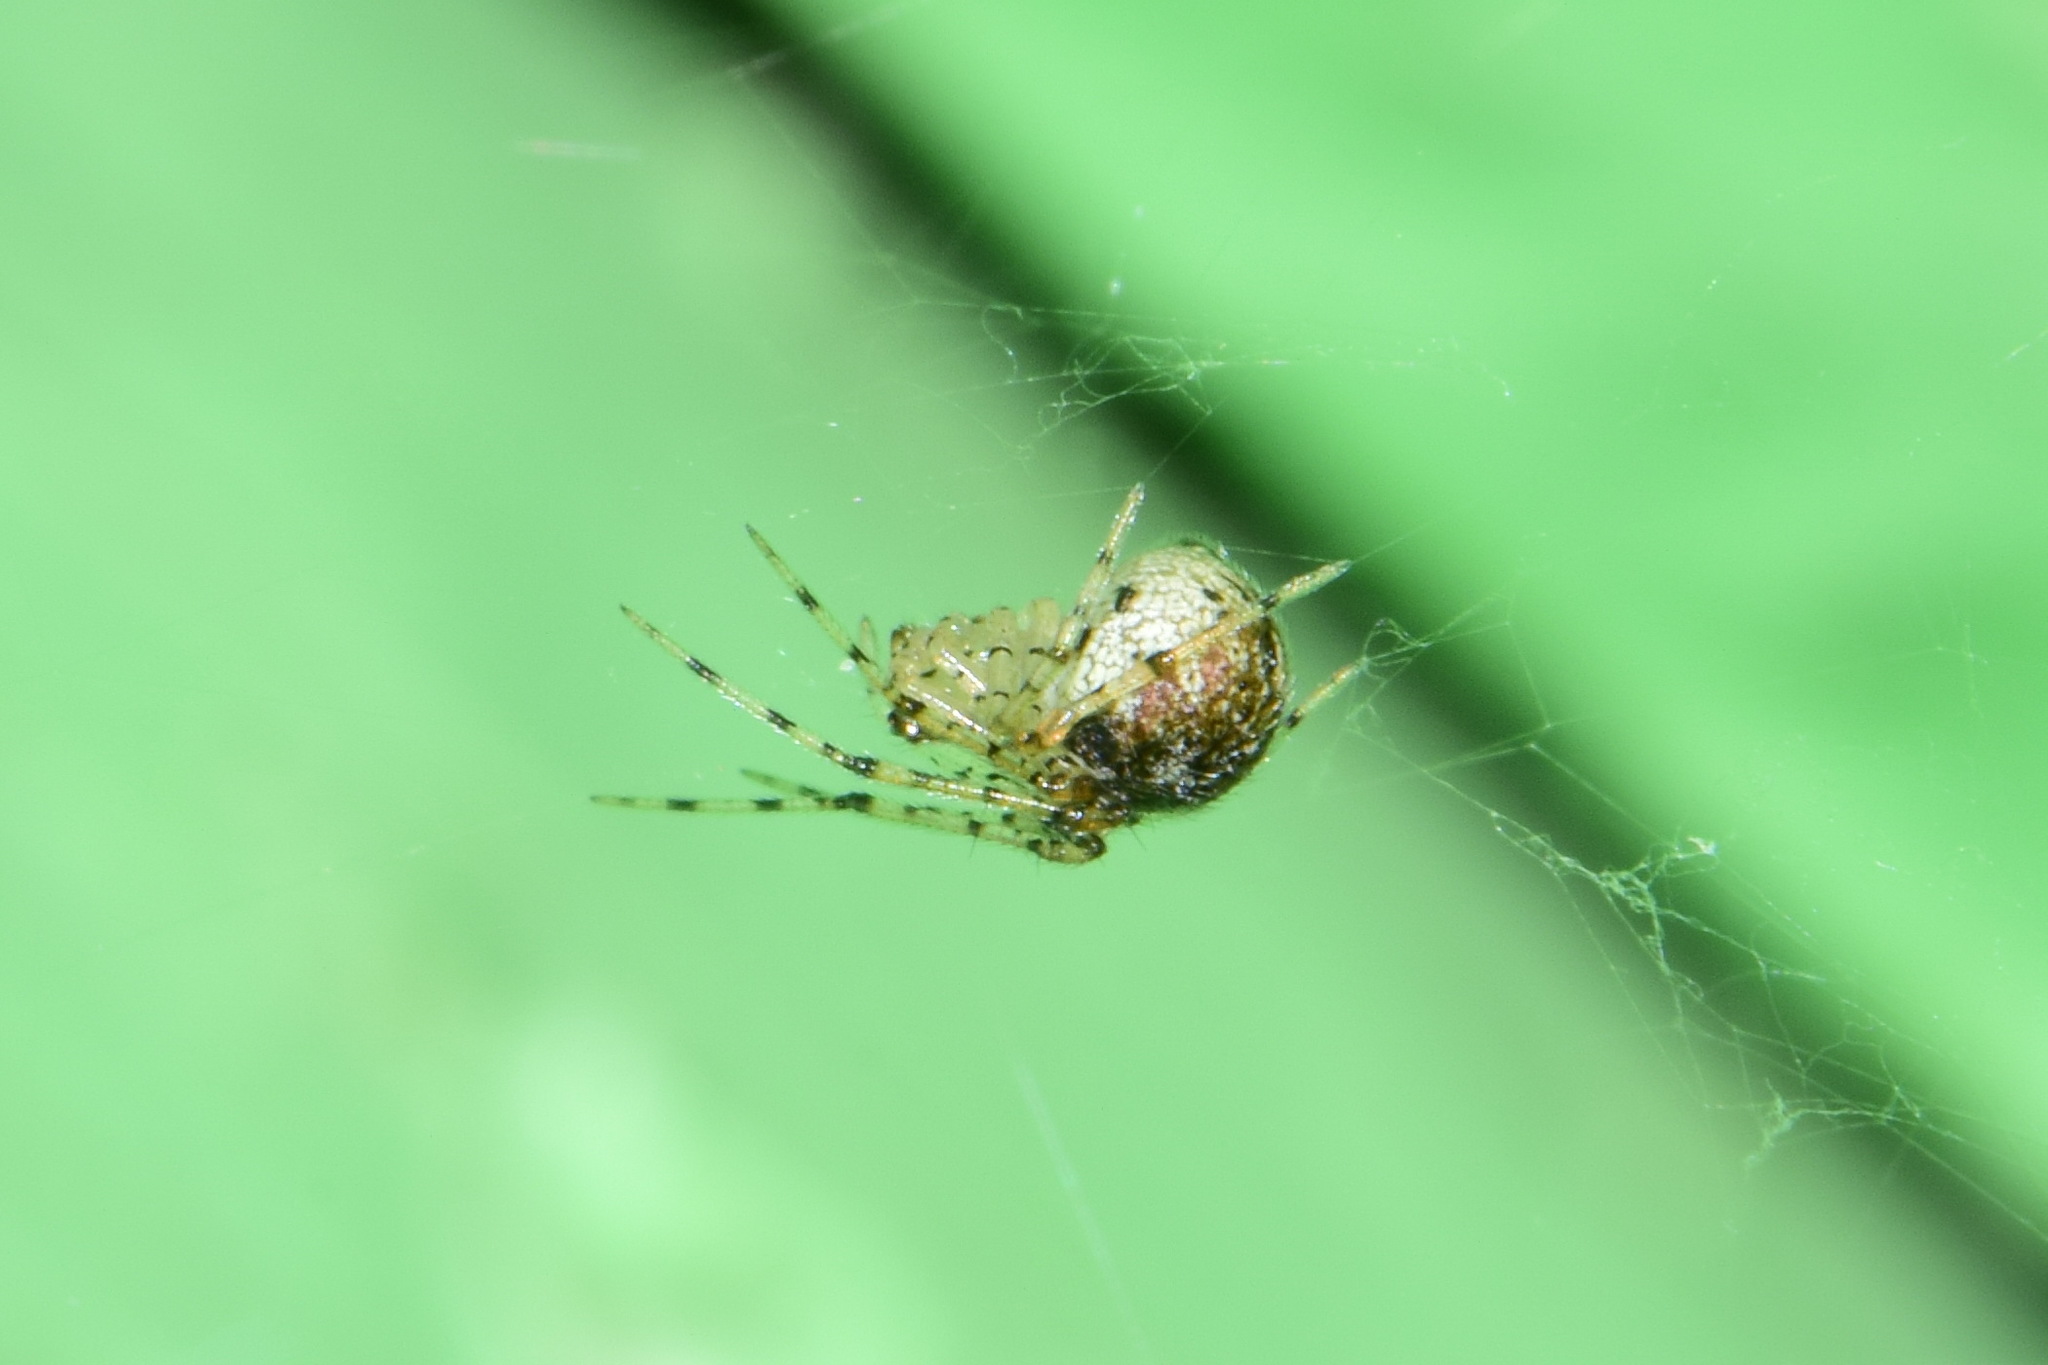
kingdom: Animalia
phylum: Arthropoda
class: Arachnida
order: Araneae
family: Theridiidae
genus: Platnickina
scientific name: Platnickina tincta
